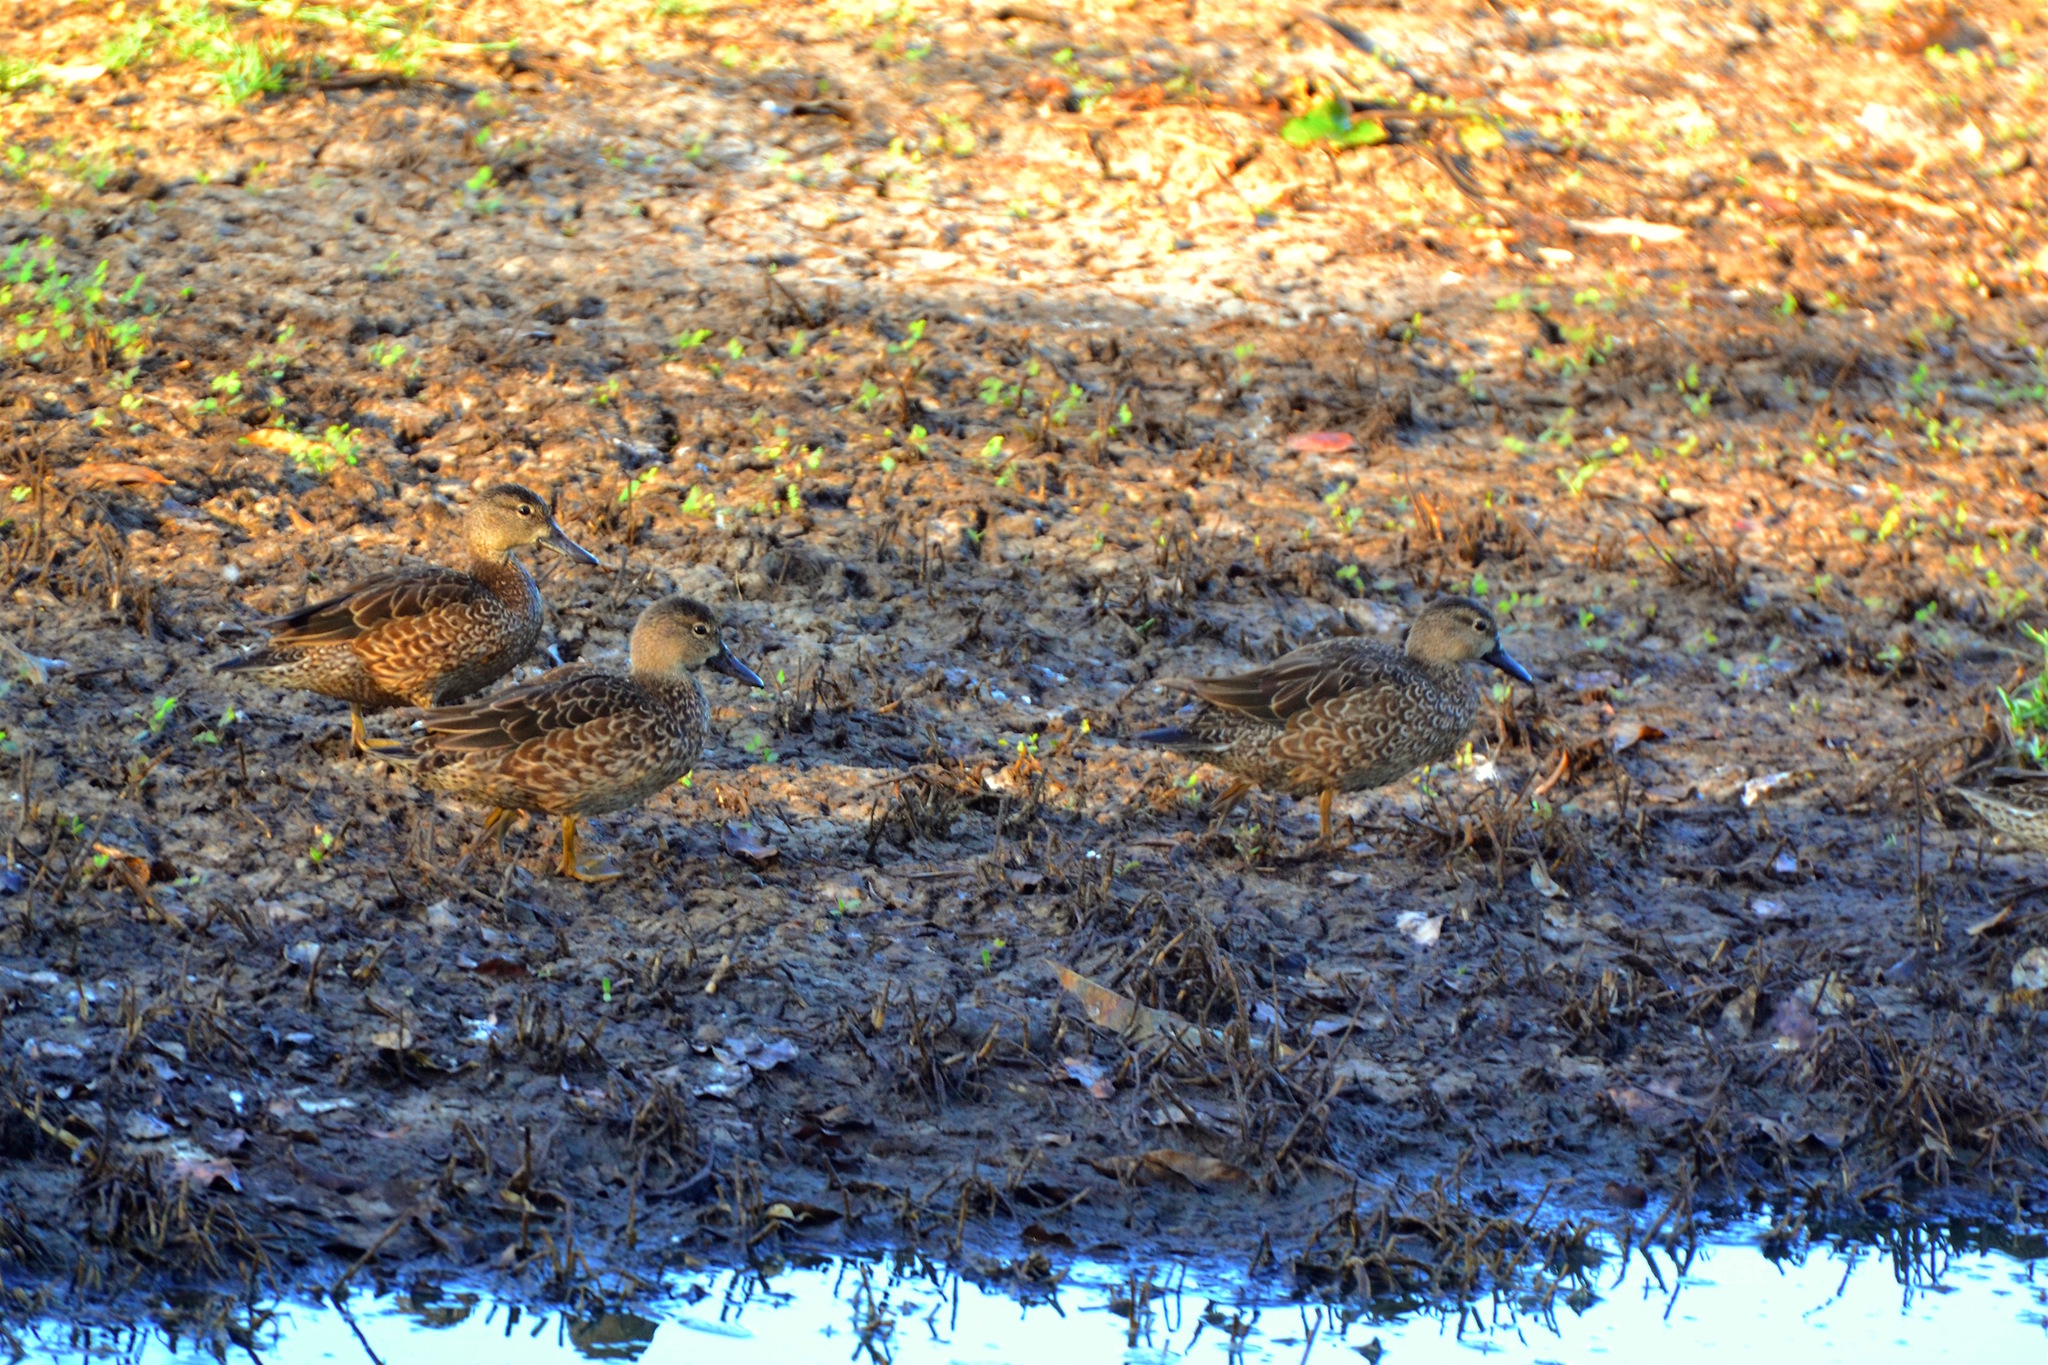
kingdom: Animalia
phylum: Chordata
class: Aves
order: Anseriformes
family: Anatidae
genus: Spatula
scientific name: Spatula discors
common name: Blue-winged teal
